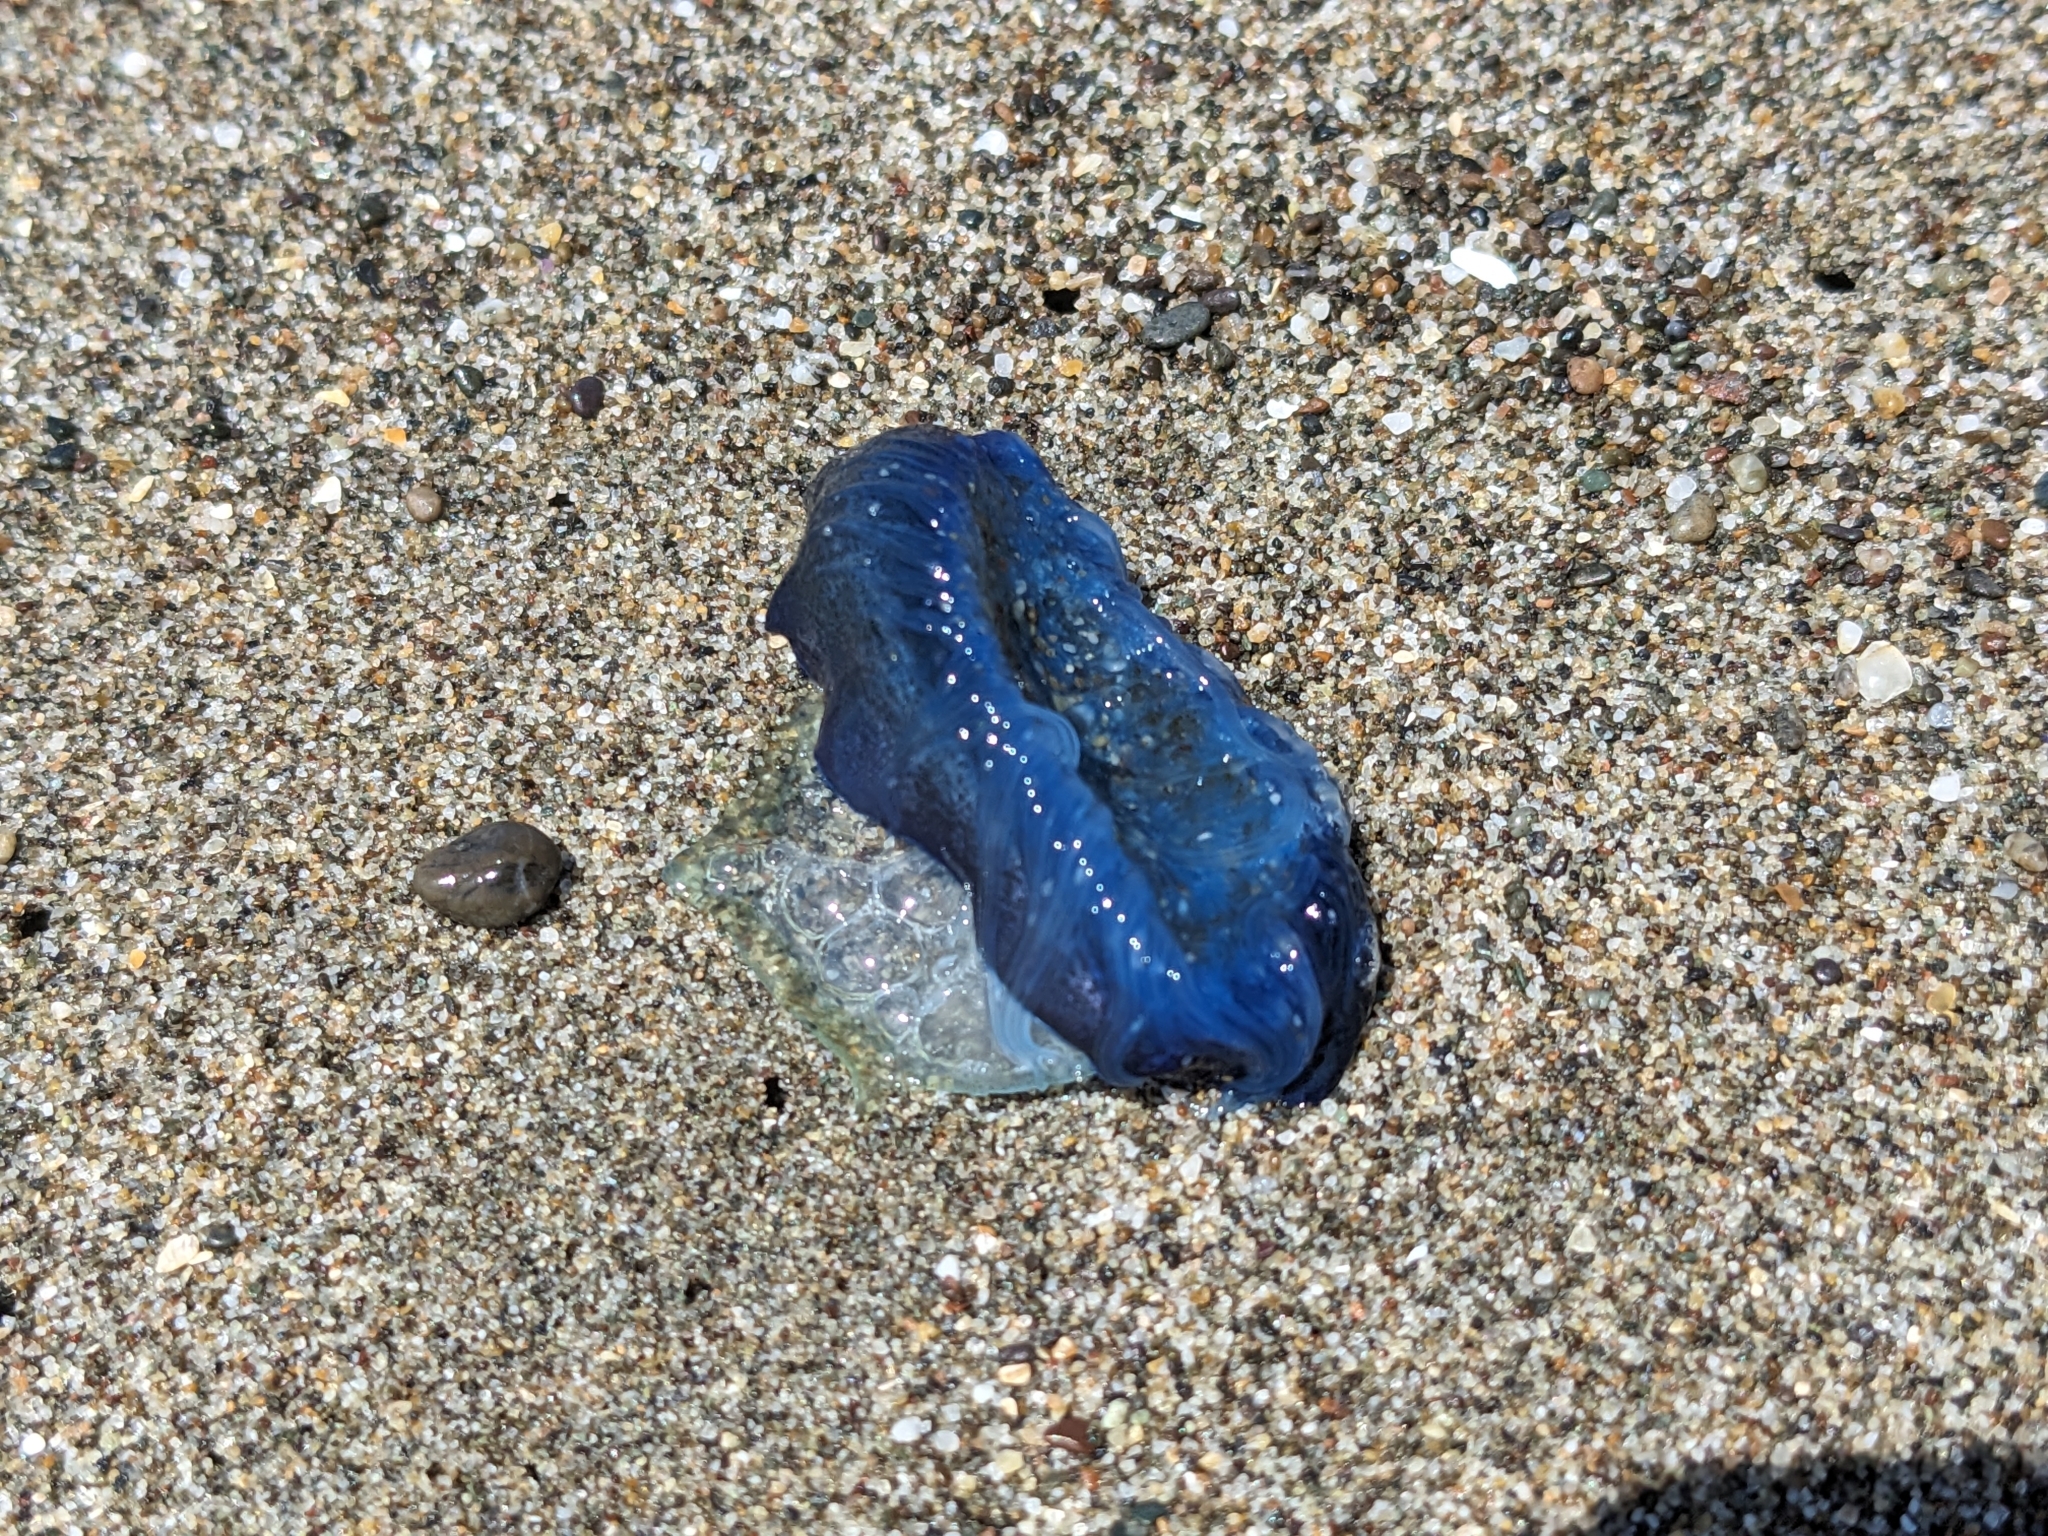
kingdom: Animalia
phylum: Cnidaria
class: Hydrozoa
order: Anthoathecata
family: Porpitidae
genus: Velella
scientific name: Velella velella
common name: By-the-wind-sailor
